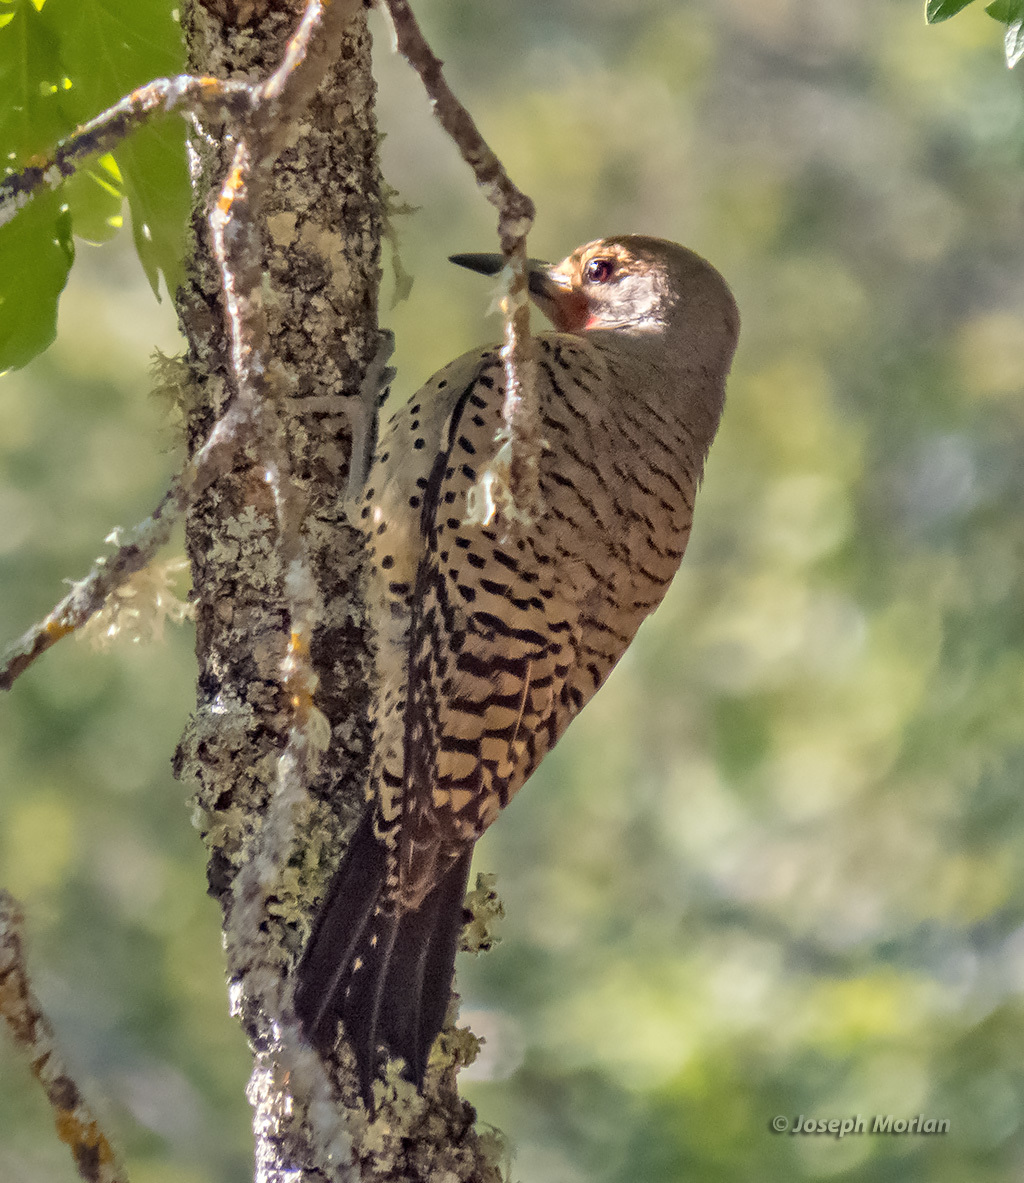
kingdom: Animalia
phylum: Chordata
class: Aves
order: Piciformes
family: Picidae
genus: Colaptes
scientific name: Colaptes auratus
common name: Northern flicker
